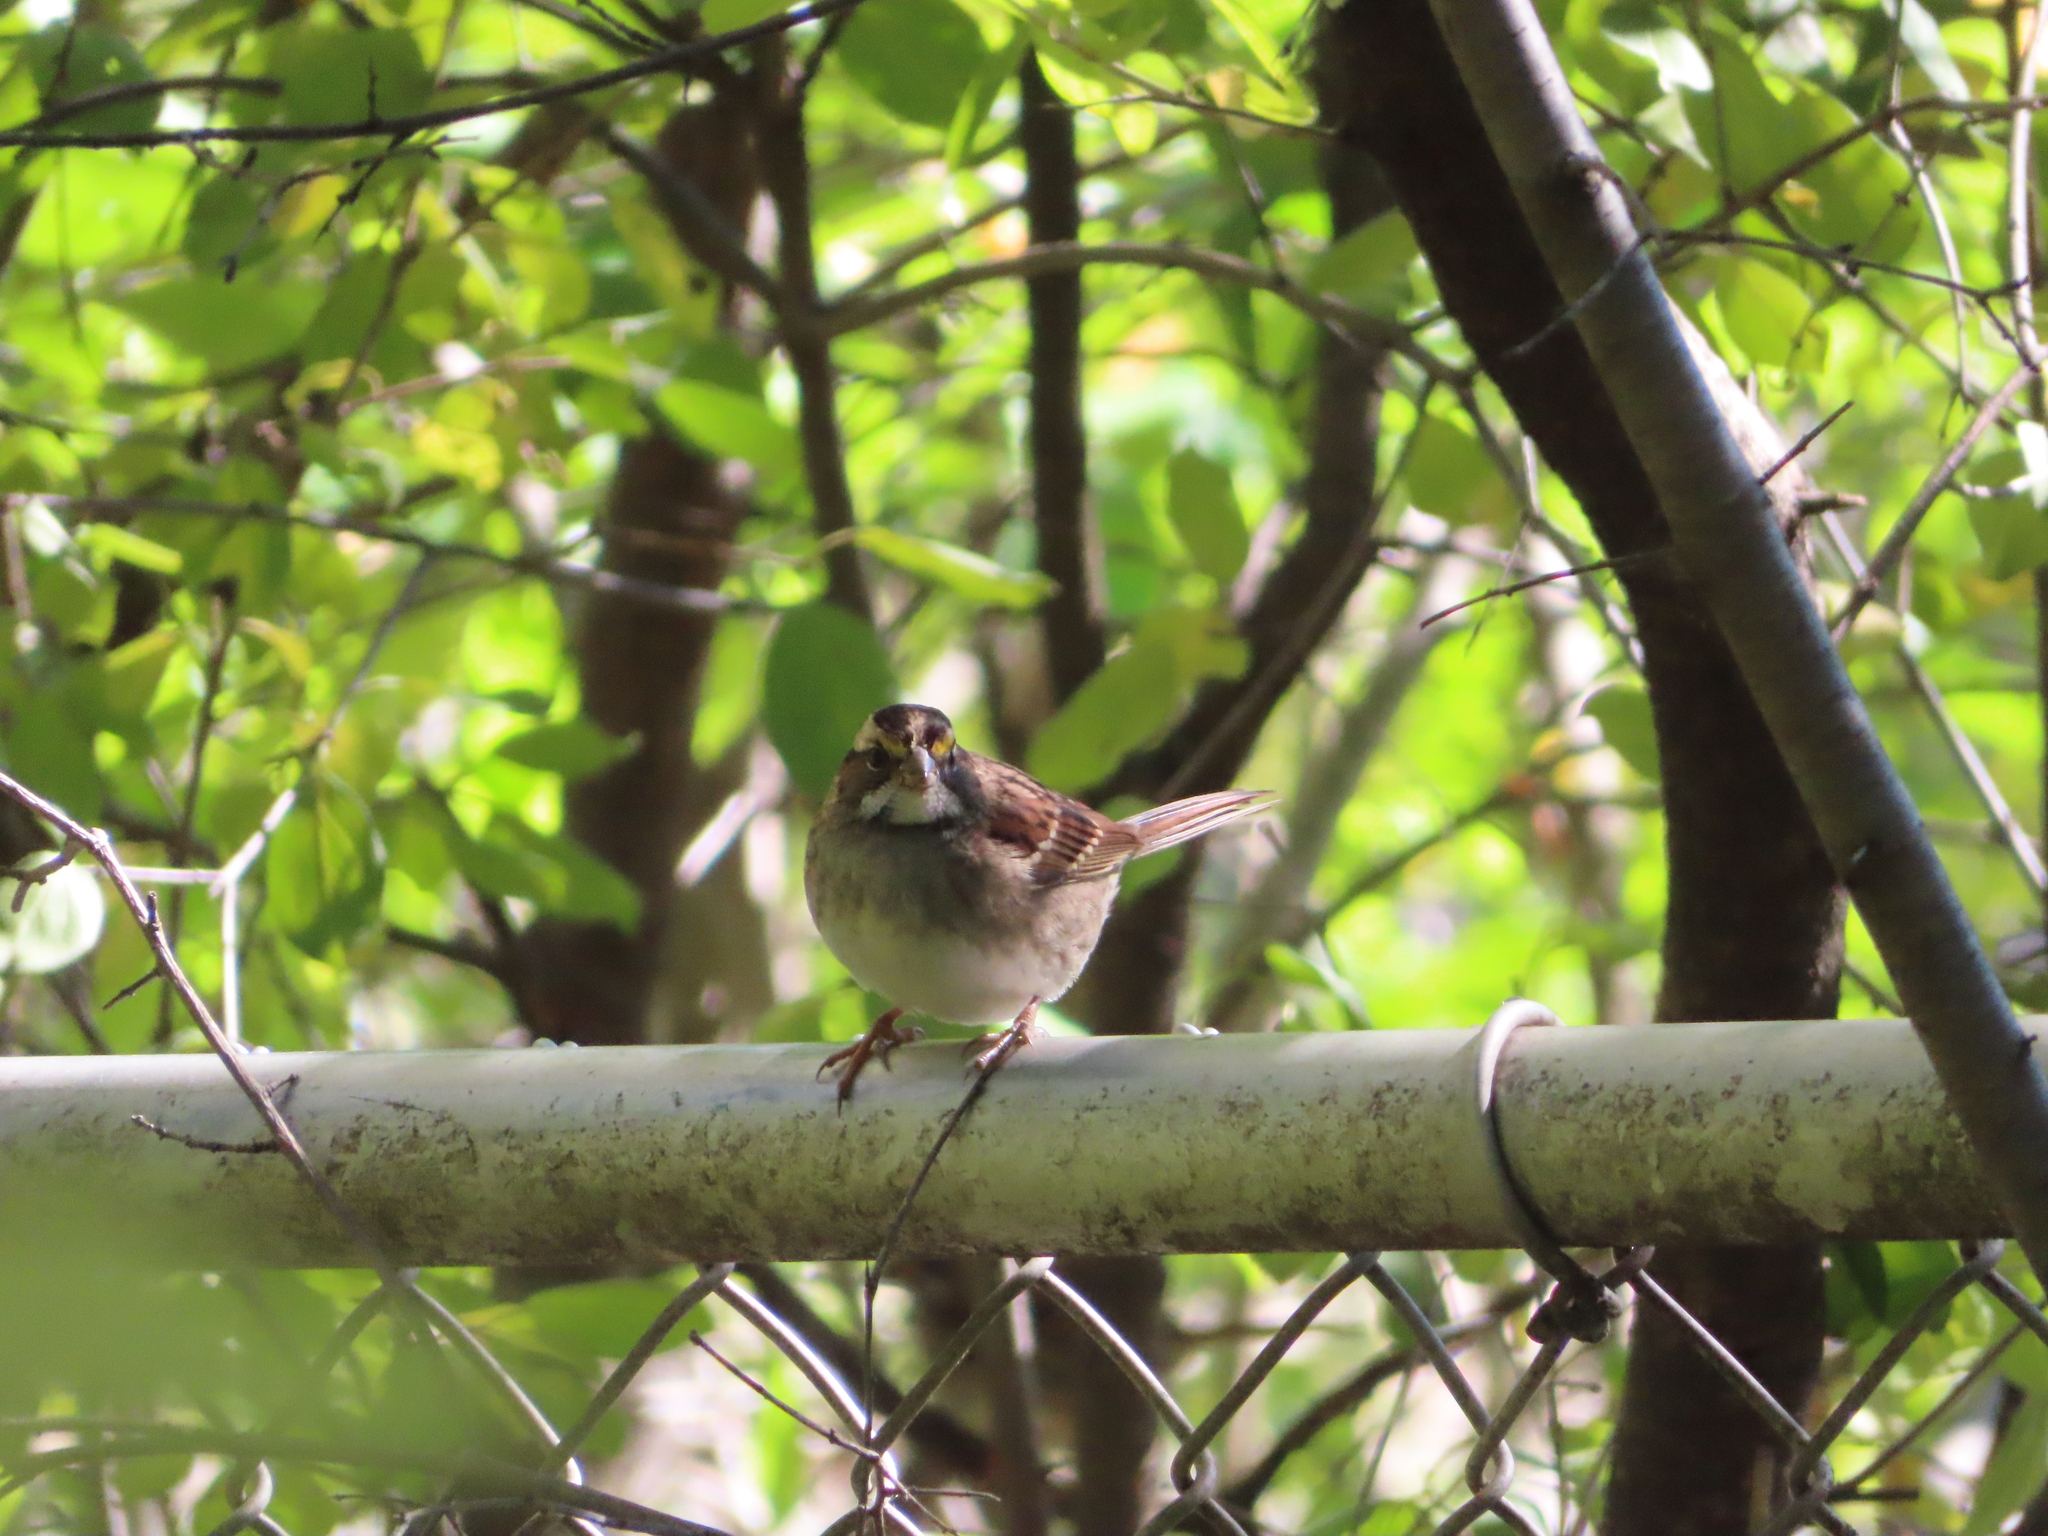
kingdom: Animalia
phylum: Chordata
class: Aves
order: Passeriformes
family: Passerellidae
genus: Zonotrichia
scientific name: Zonotrichia albicollis
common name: White-throated sparrow
